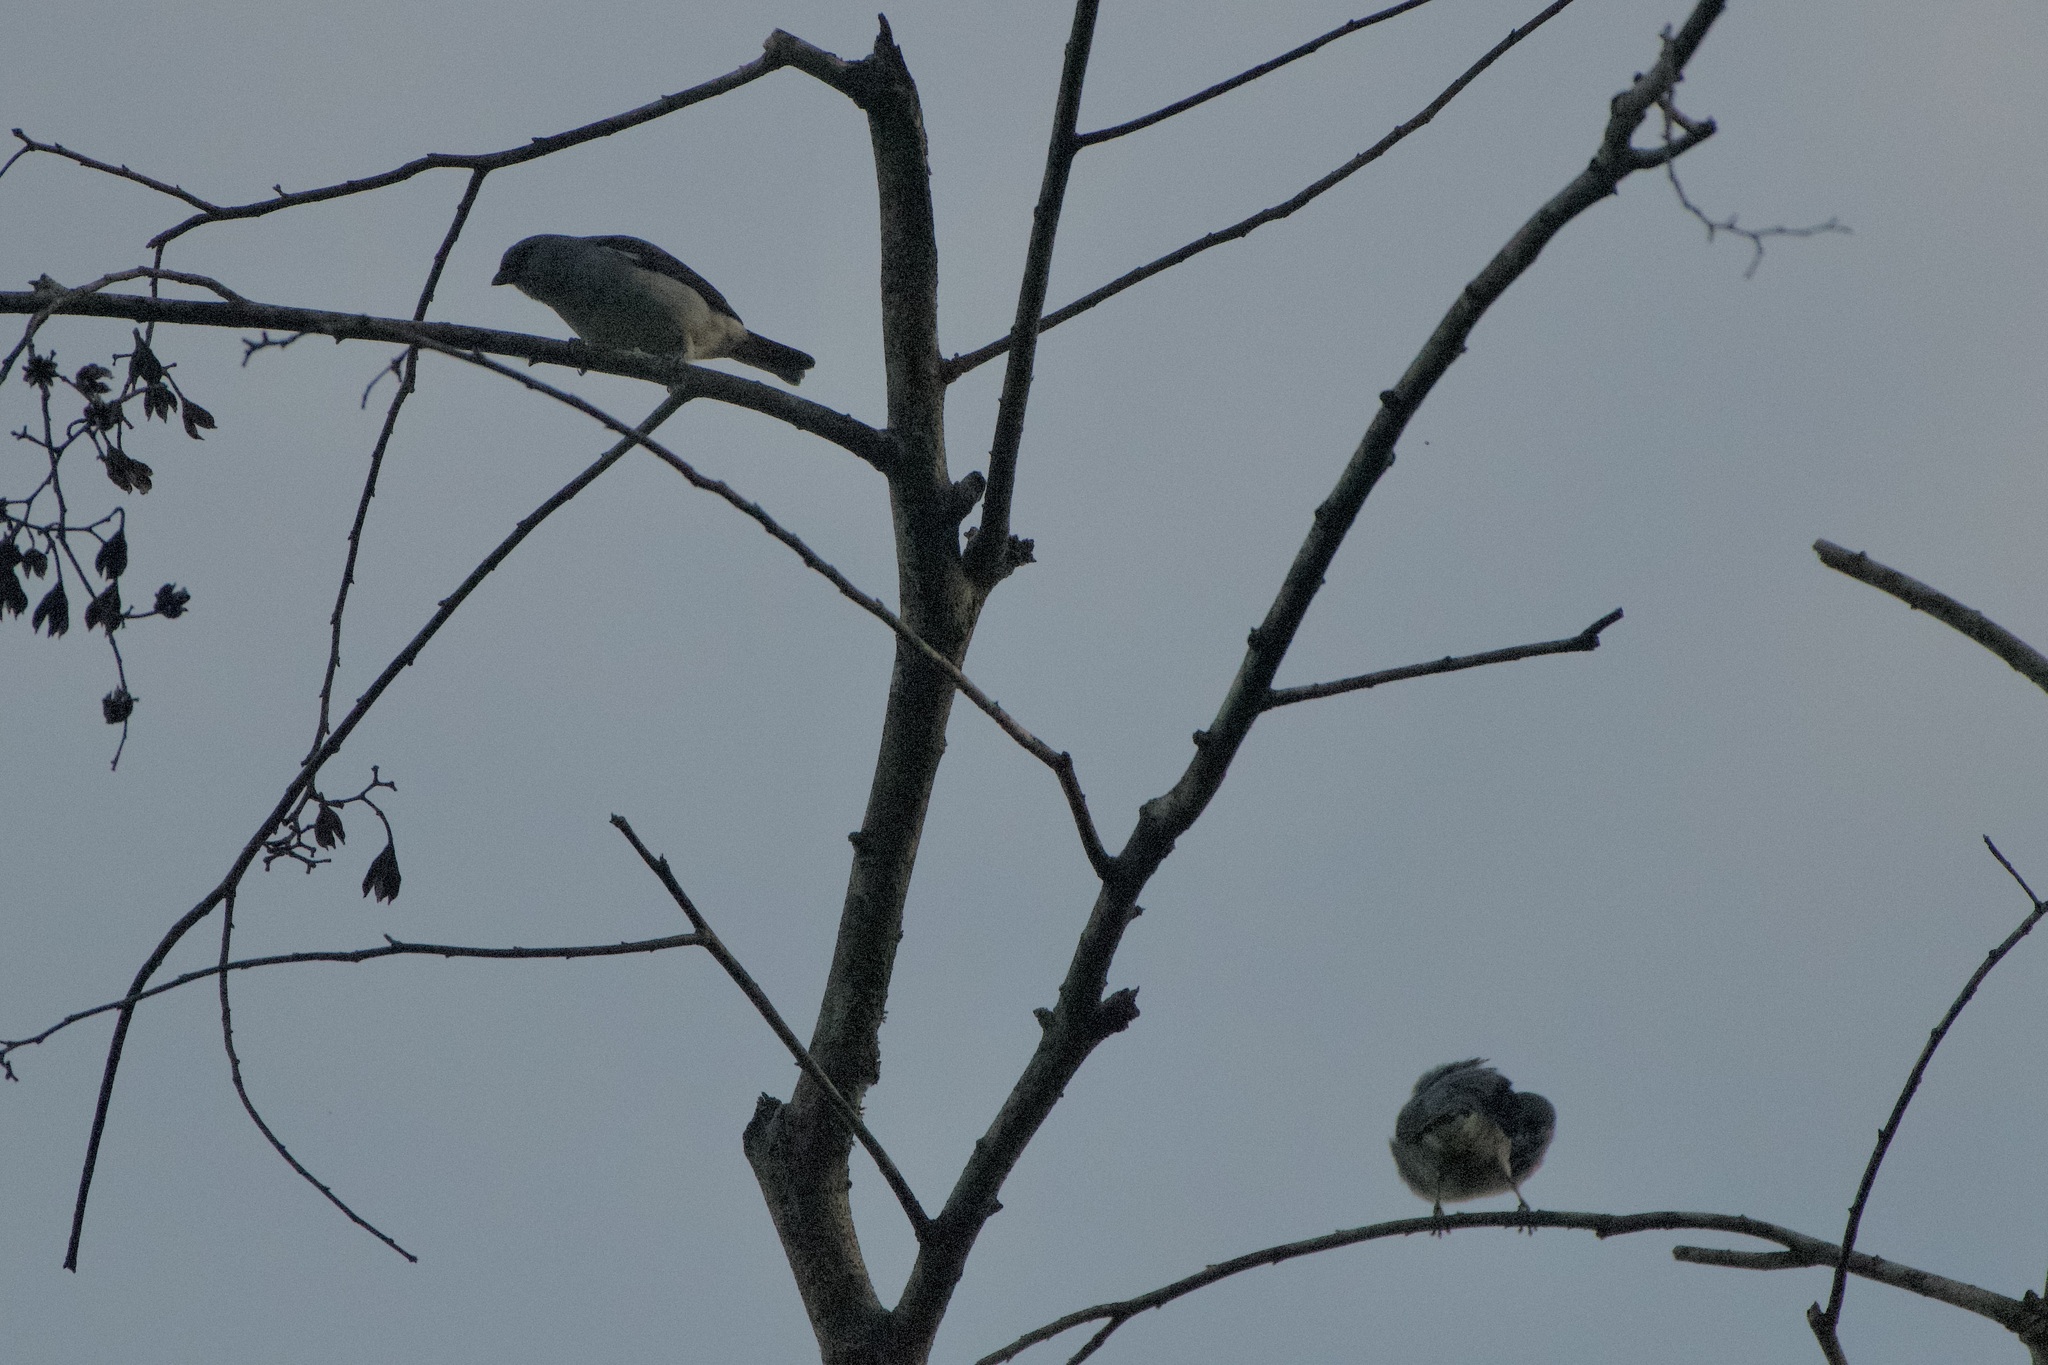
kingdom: Animalia
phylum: Chordata
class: Aves
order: Passeriformes
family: Thraupidae
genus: Tangara
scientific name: Tangara inornata
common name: Plain-colored tanager
